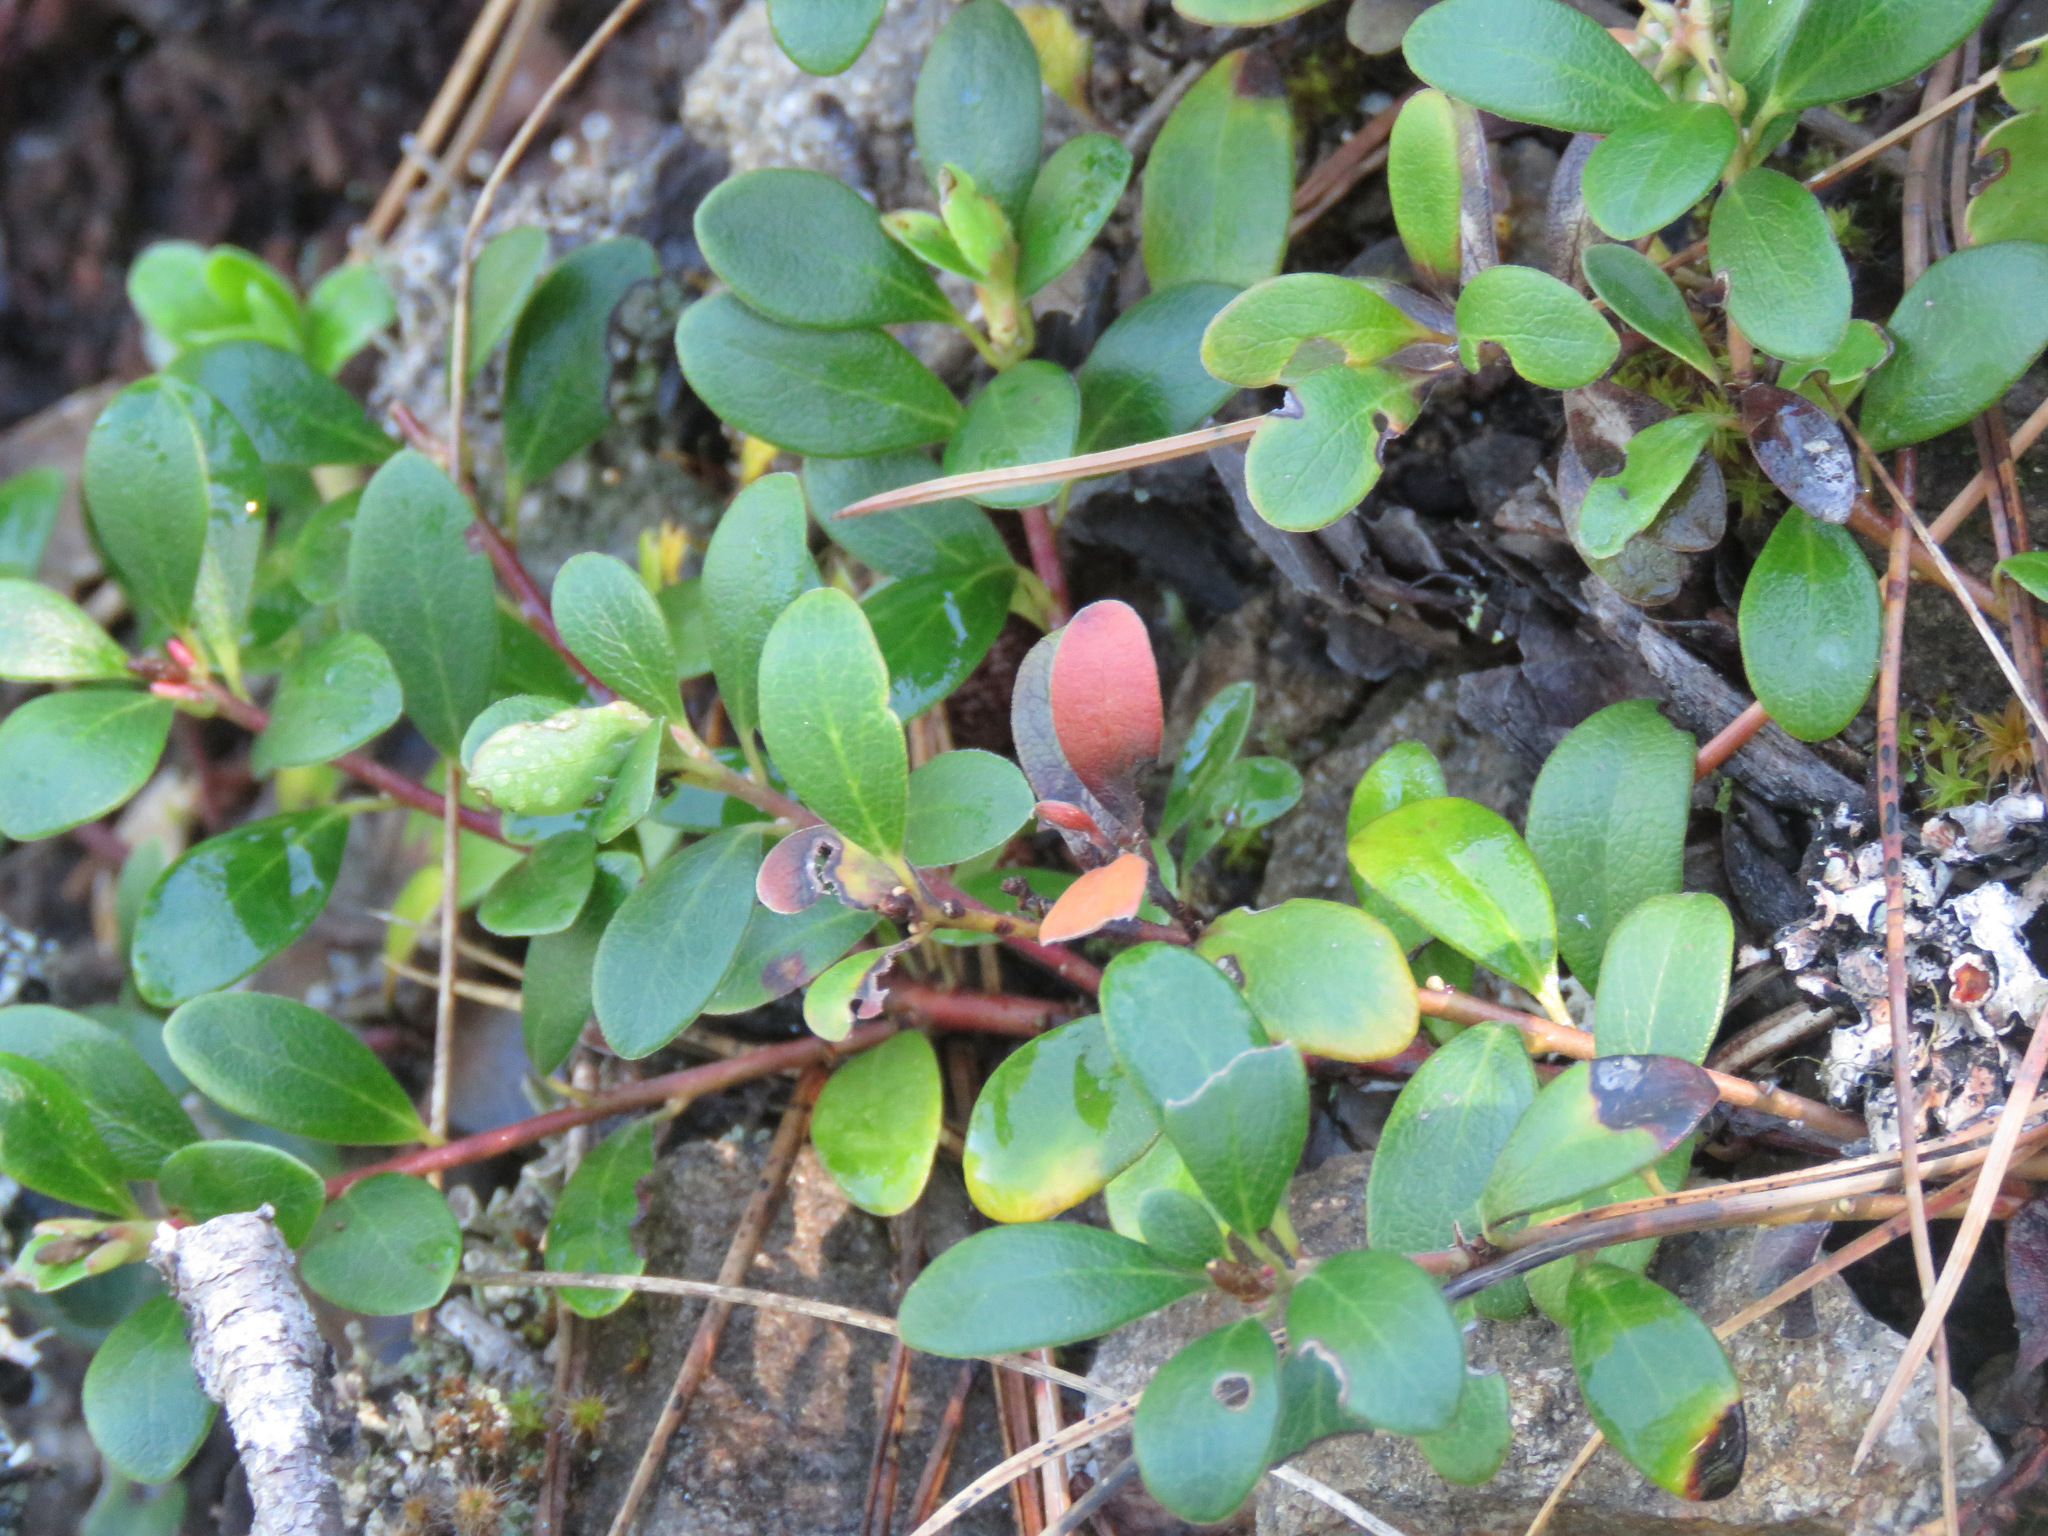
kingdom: Plantae
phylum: Tracheophyta
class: Magnoliopsida
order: Ericales
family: Ericaceae
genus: Arctostaphylos
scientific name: Arctostaphylos uva-ursi
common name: Bearberry
